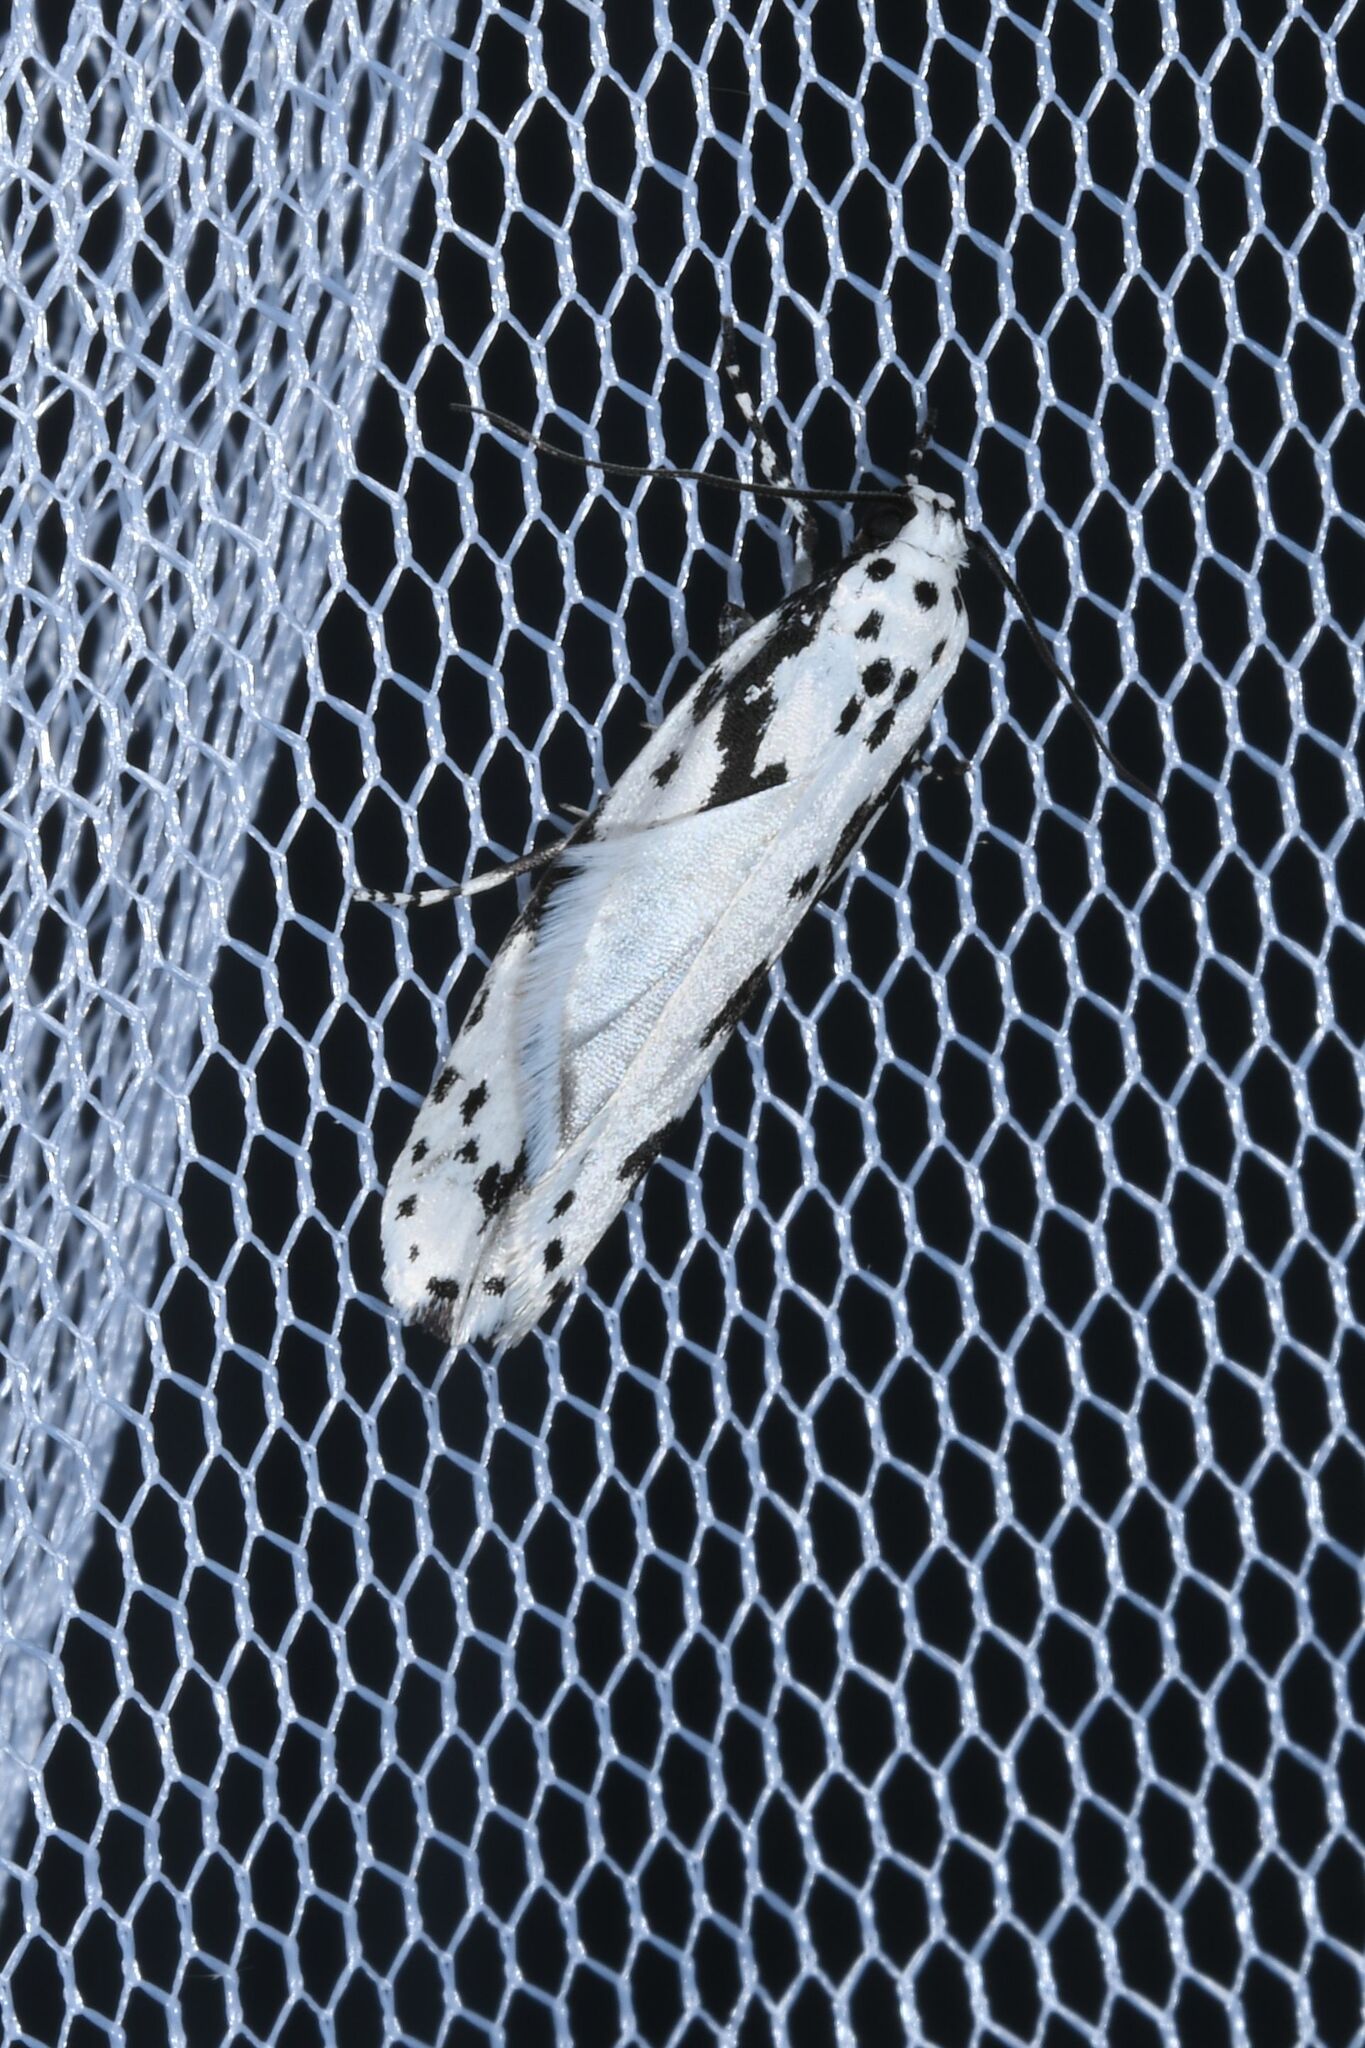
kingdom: Animalia
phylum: Arthropoda
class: Insecta
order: Lepidoptera
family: Ethmiidae
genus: Ethmia
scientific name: Ethmia pusiella
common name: Striped ermel
